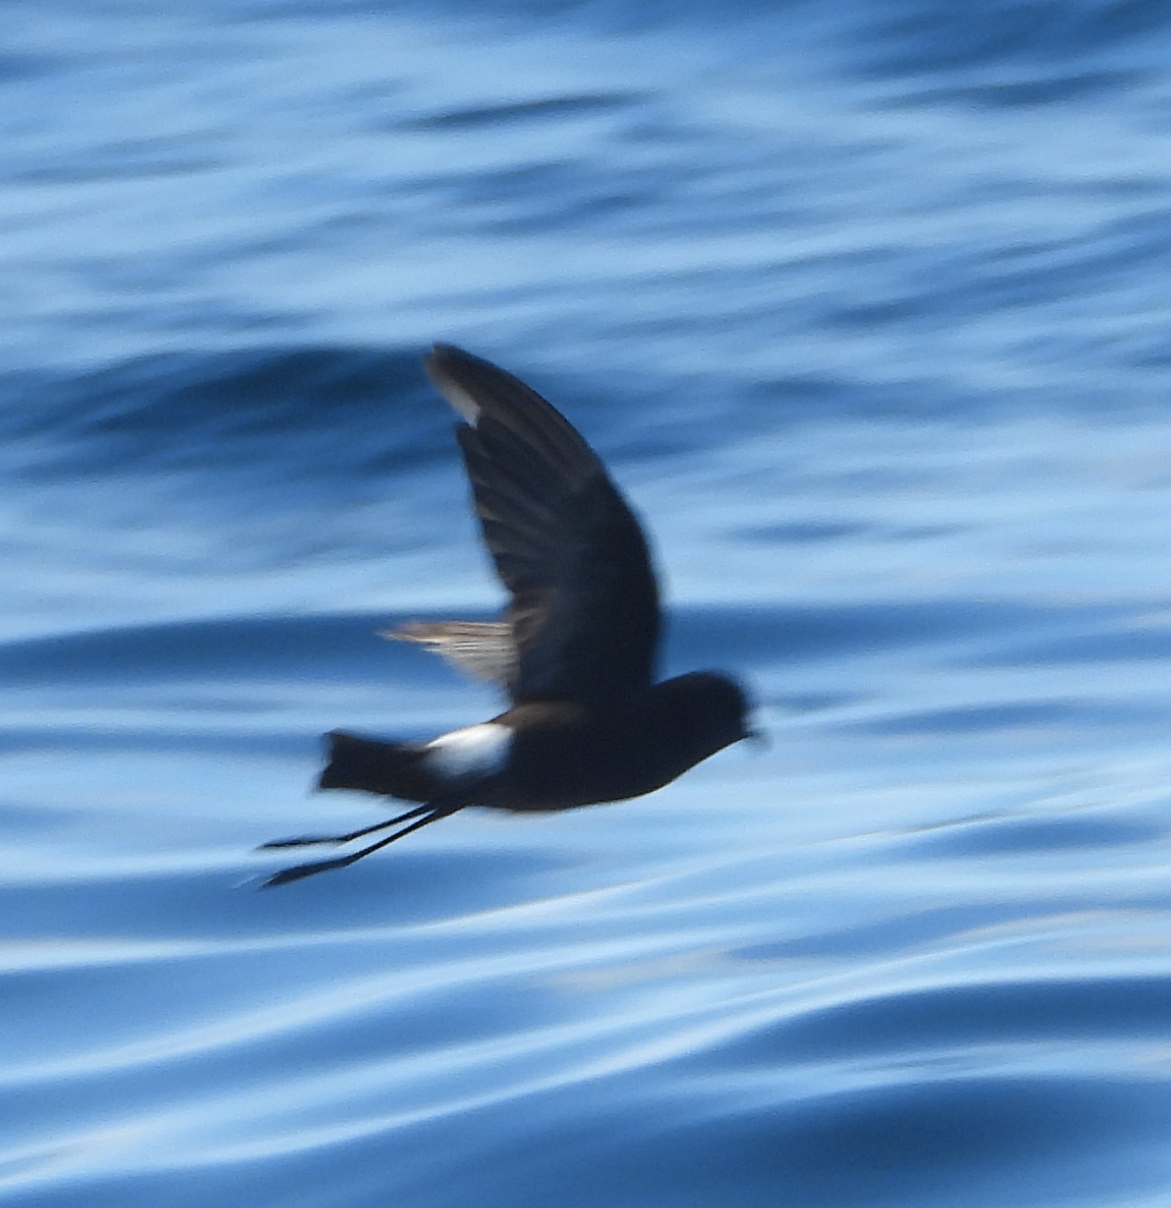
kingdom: Animalia
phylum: Chordata
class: Aves
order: Procellariiformes
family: Hydrobatidae
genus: Oceanites
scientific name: Oceanites oceanicus
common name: Wilson's storm petrel
